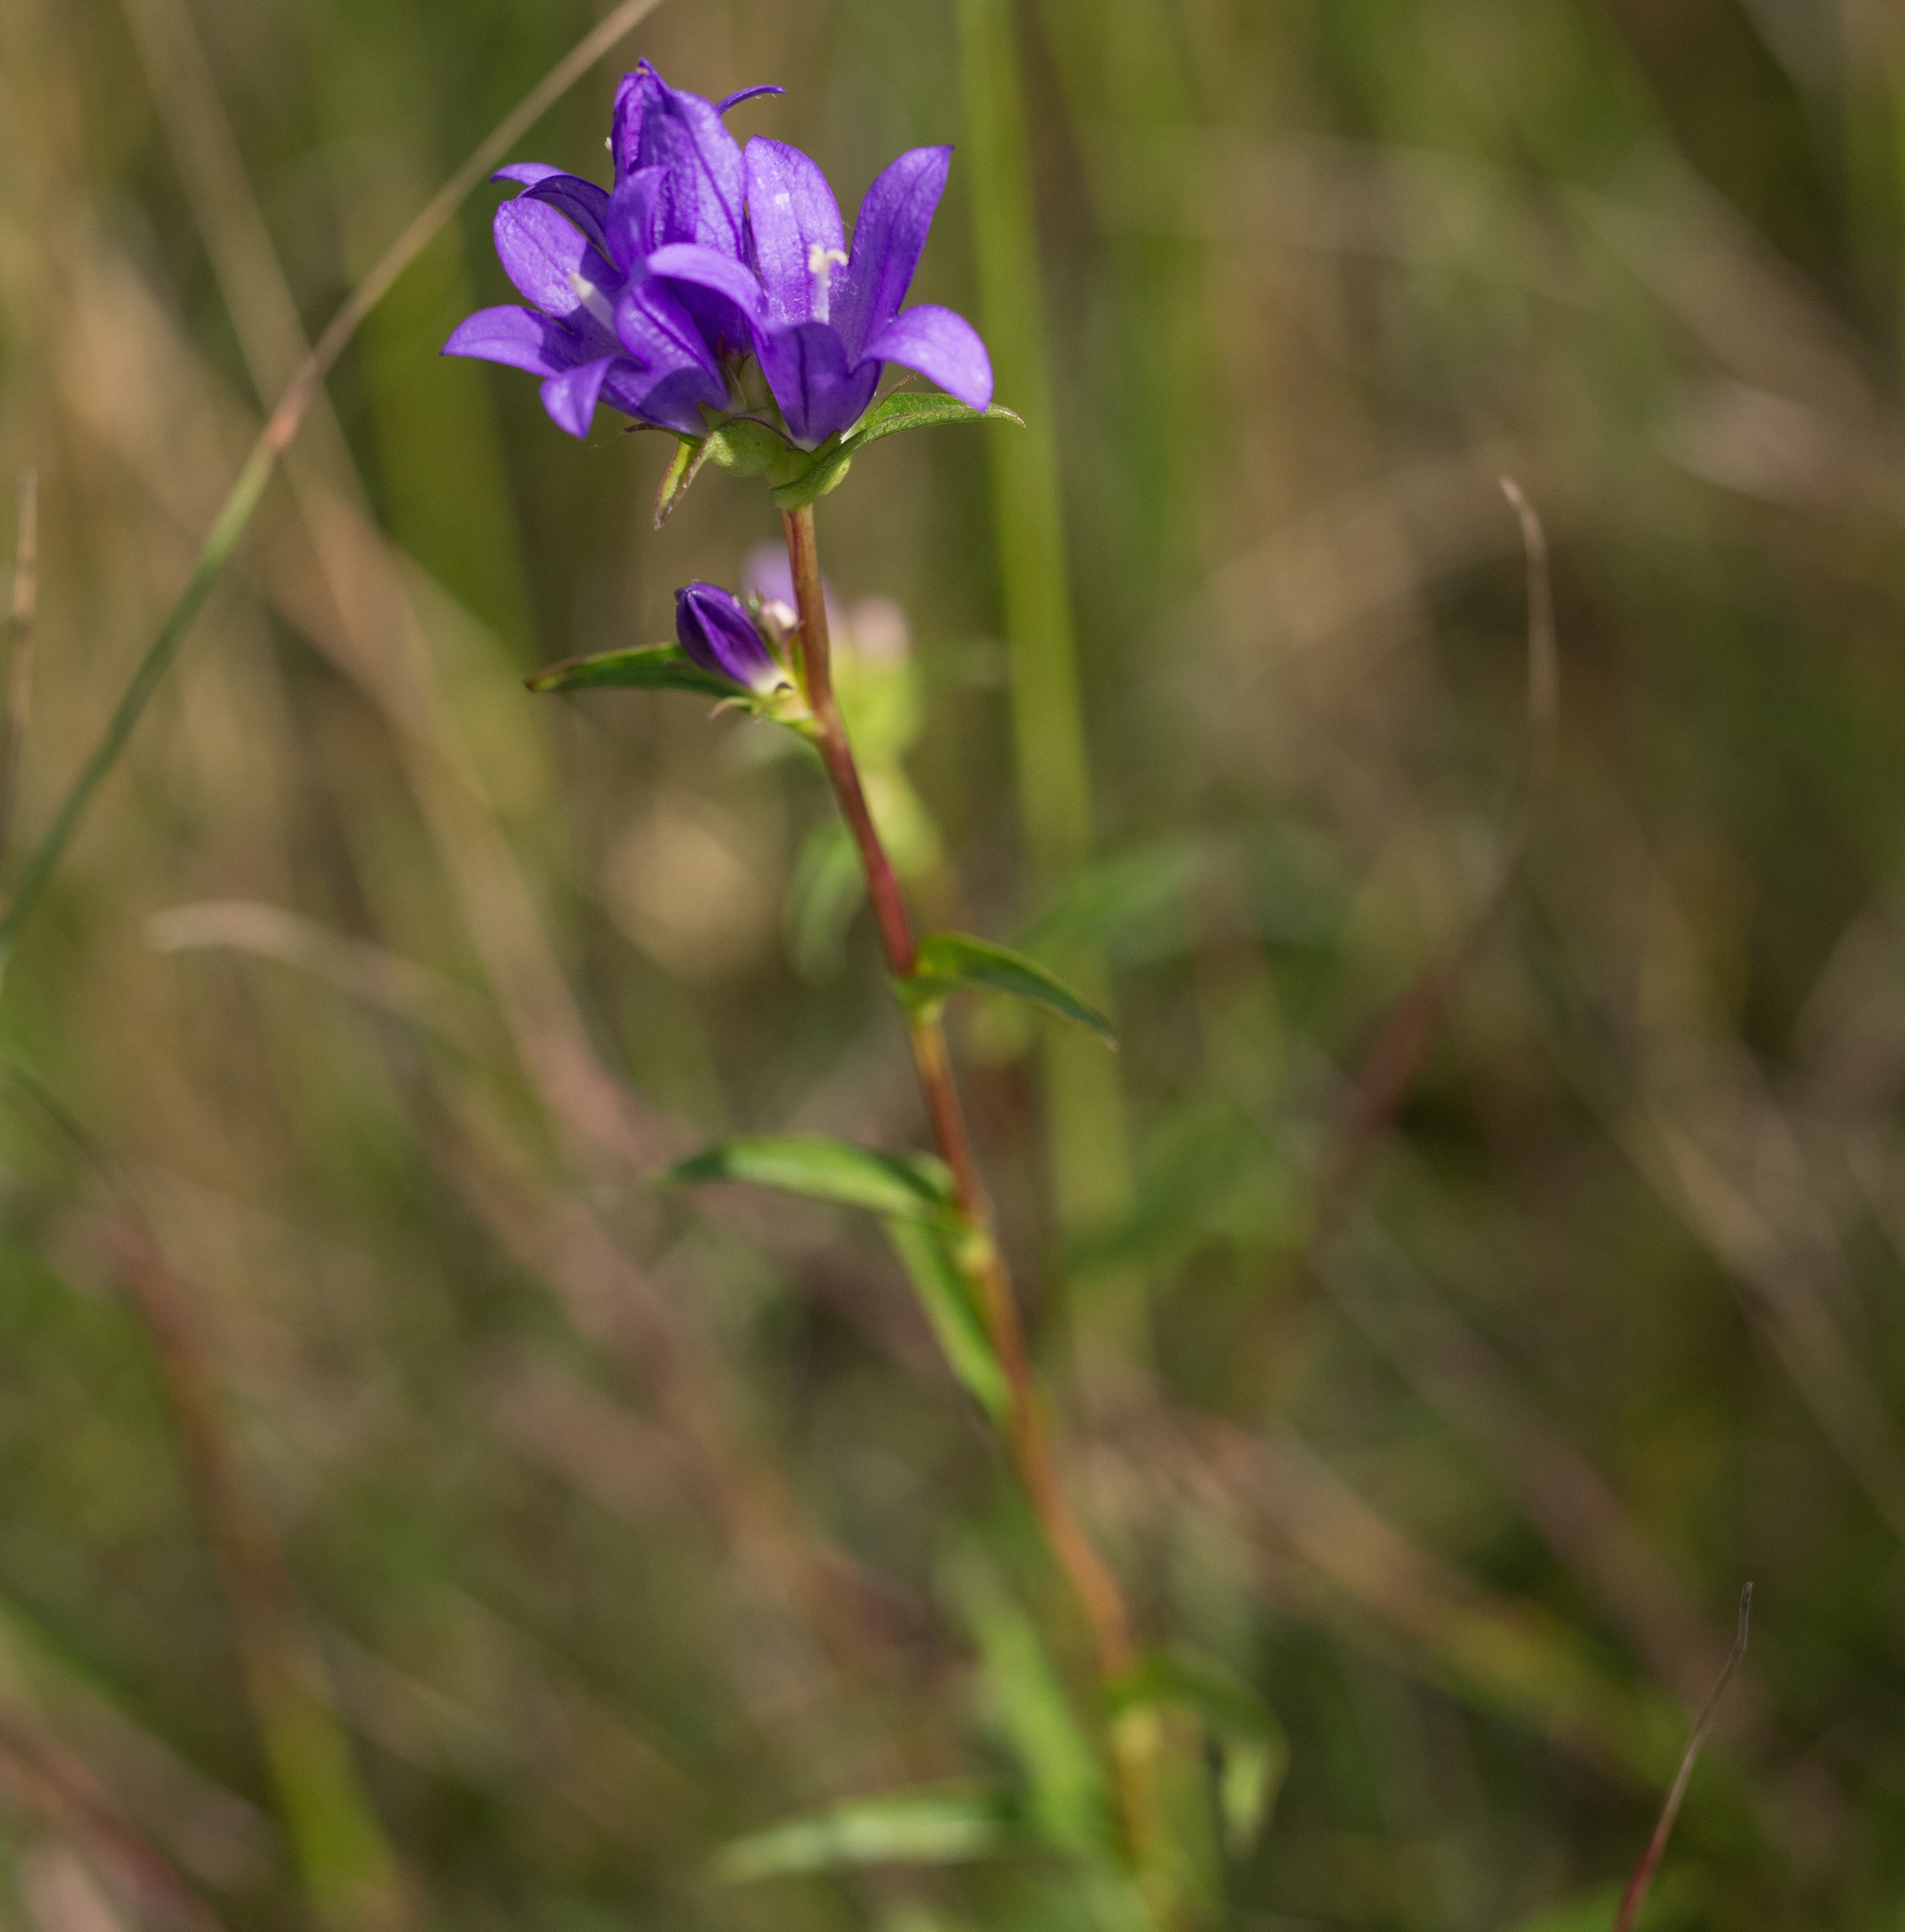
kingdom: Plantae
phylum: Tracheophyta
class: Magnoliopsida
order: Asterales
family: Campanulaceae
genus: Campanula
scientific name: Campanula glomerata
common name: Clustered bellflower
